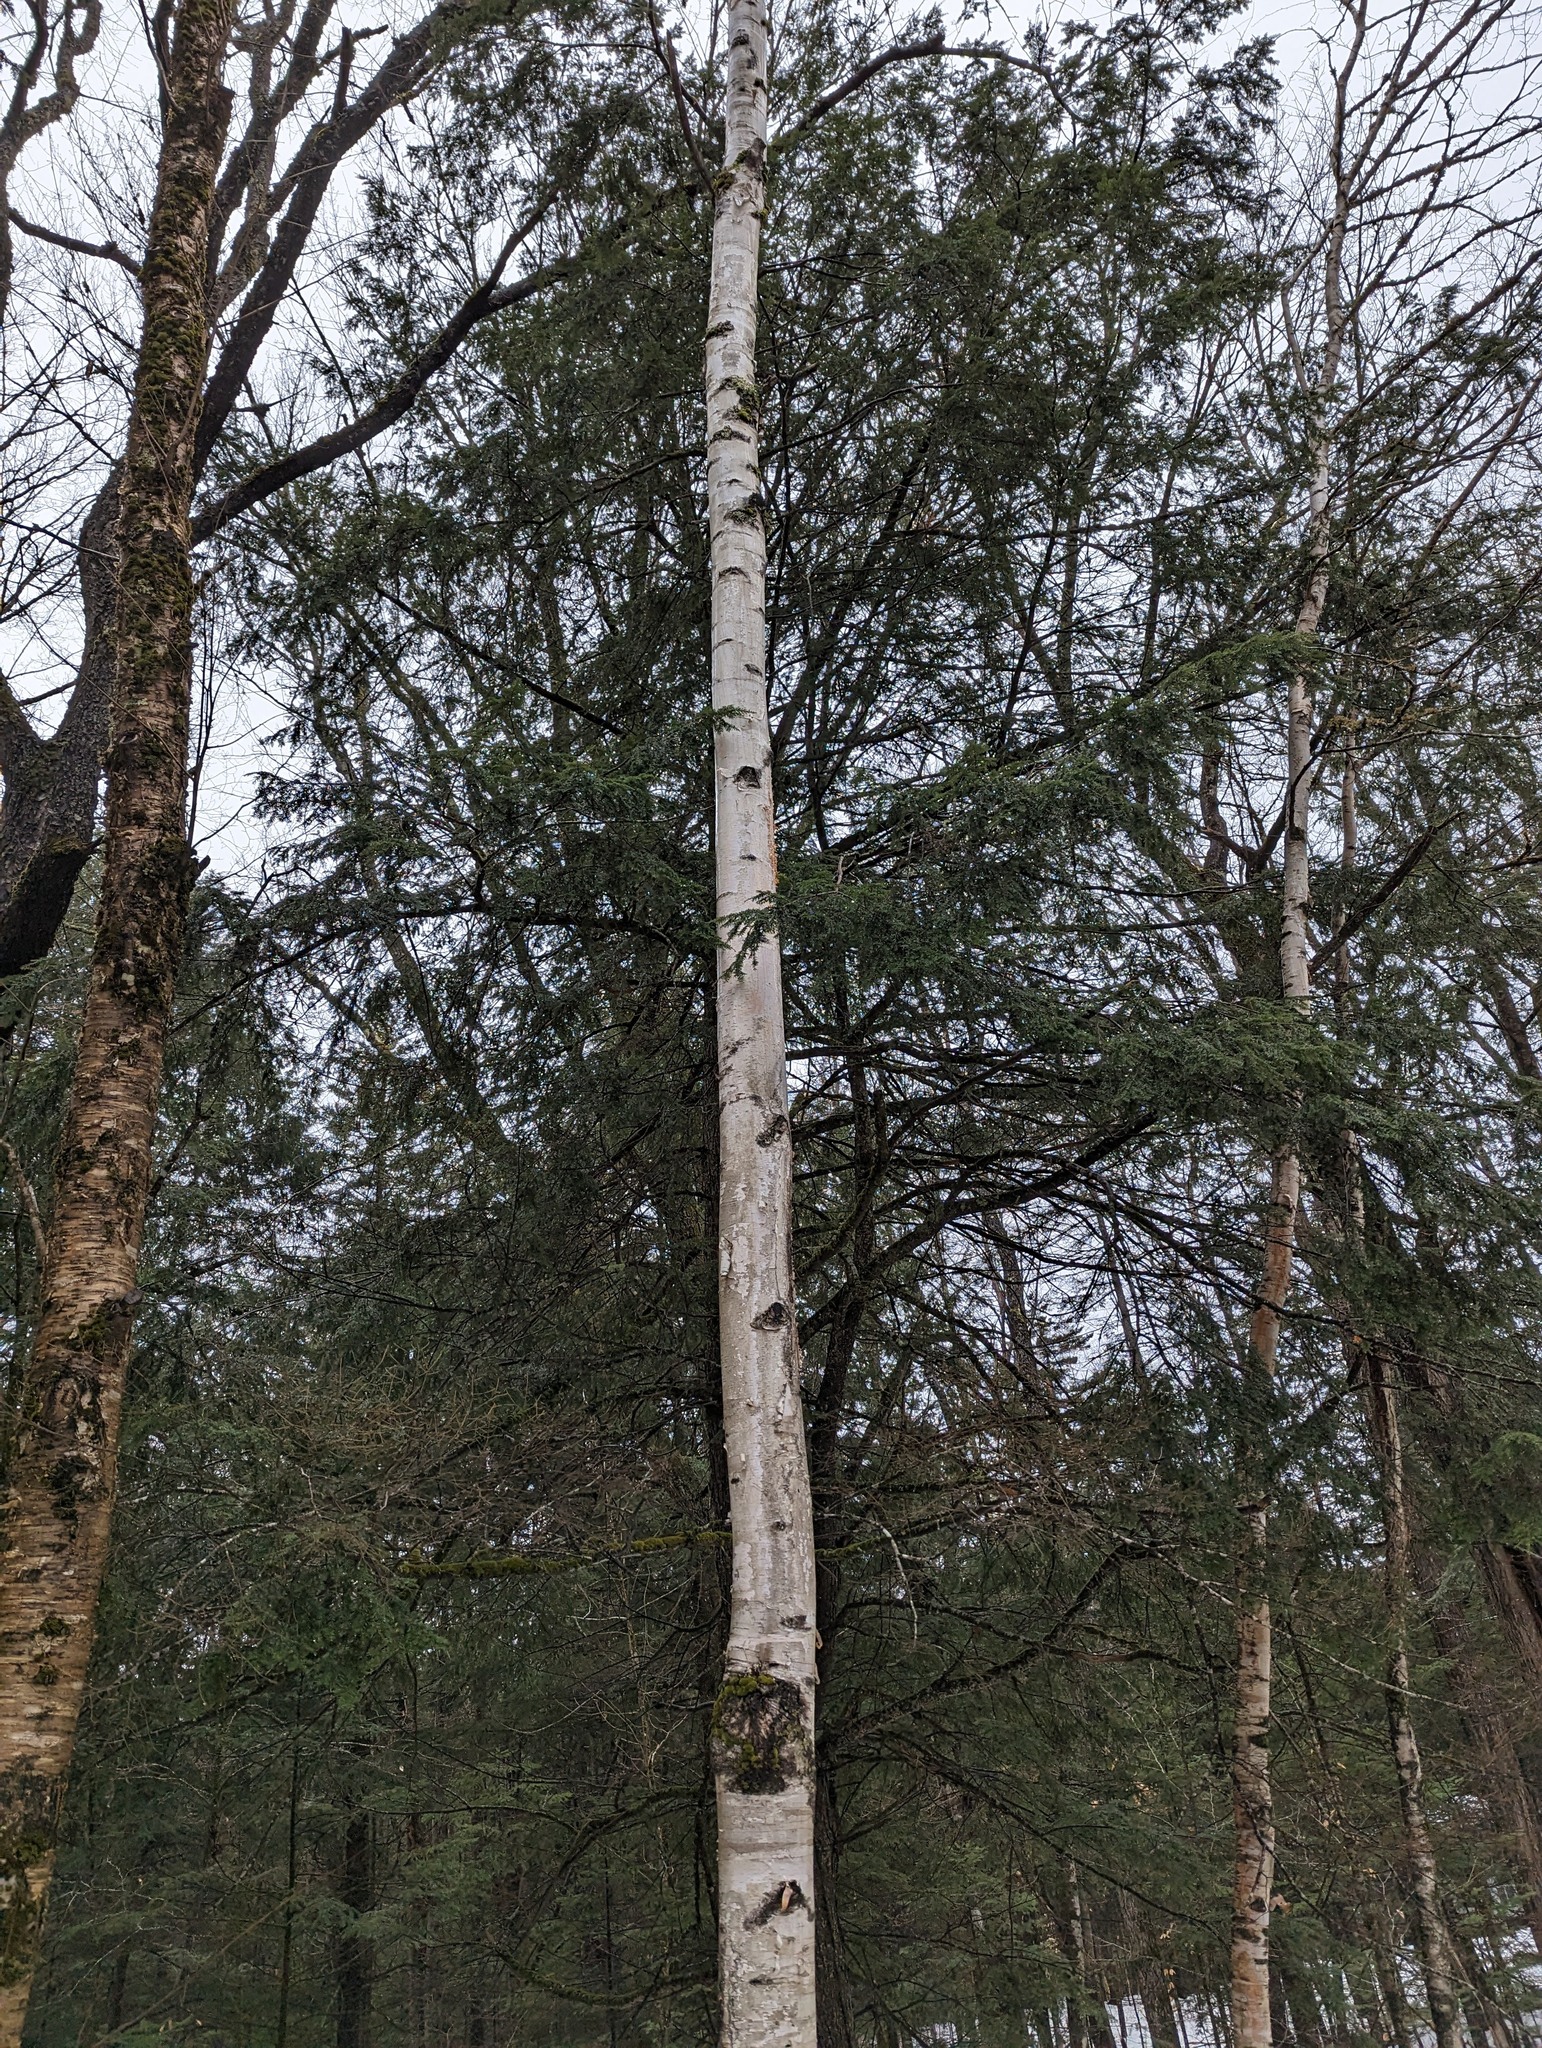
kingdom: Plantae
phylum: Tracheophyta
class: Magnoliopsida
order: Fagales
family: Betulaceae
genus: Betula
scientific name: Betula papyrifera
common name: Paper birch
